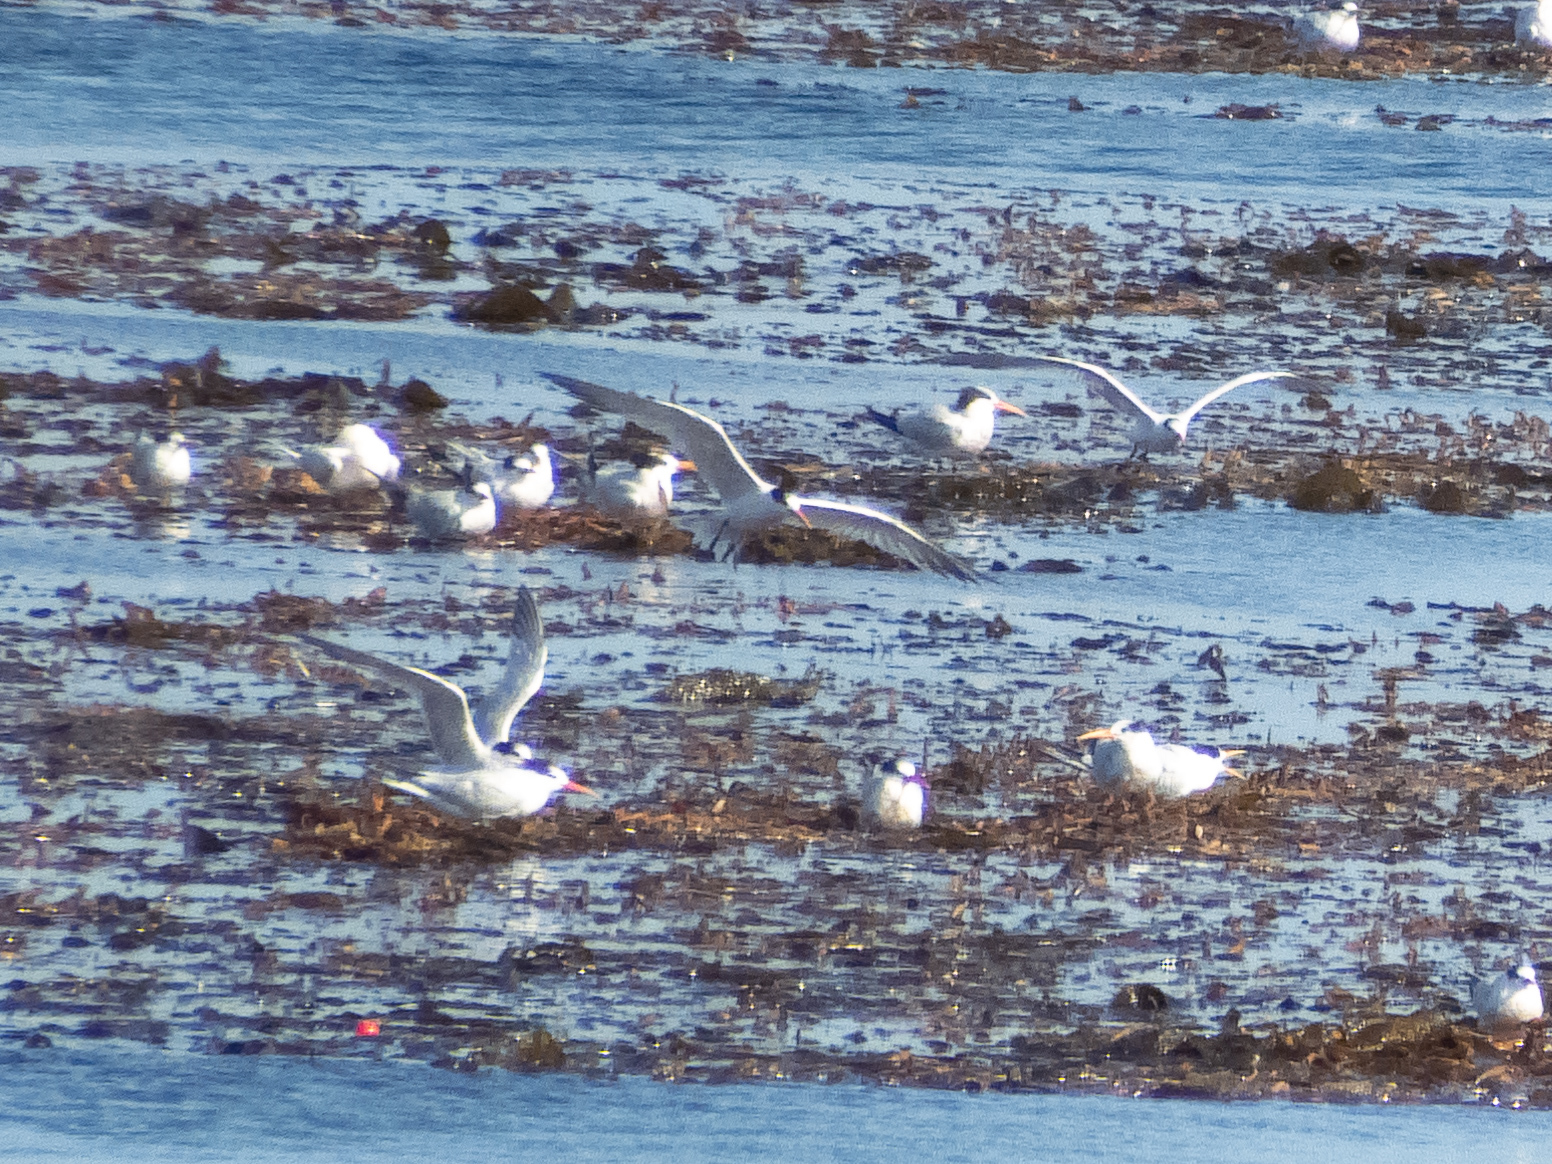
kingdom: Animalia
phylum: Chordata
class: Aves
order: Charadriiformes
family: Laridae
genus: Thalasseus
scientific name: Thalasseus elegans
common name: Elegant tern
